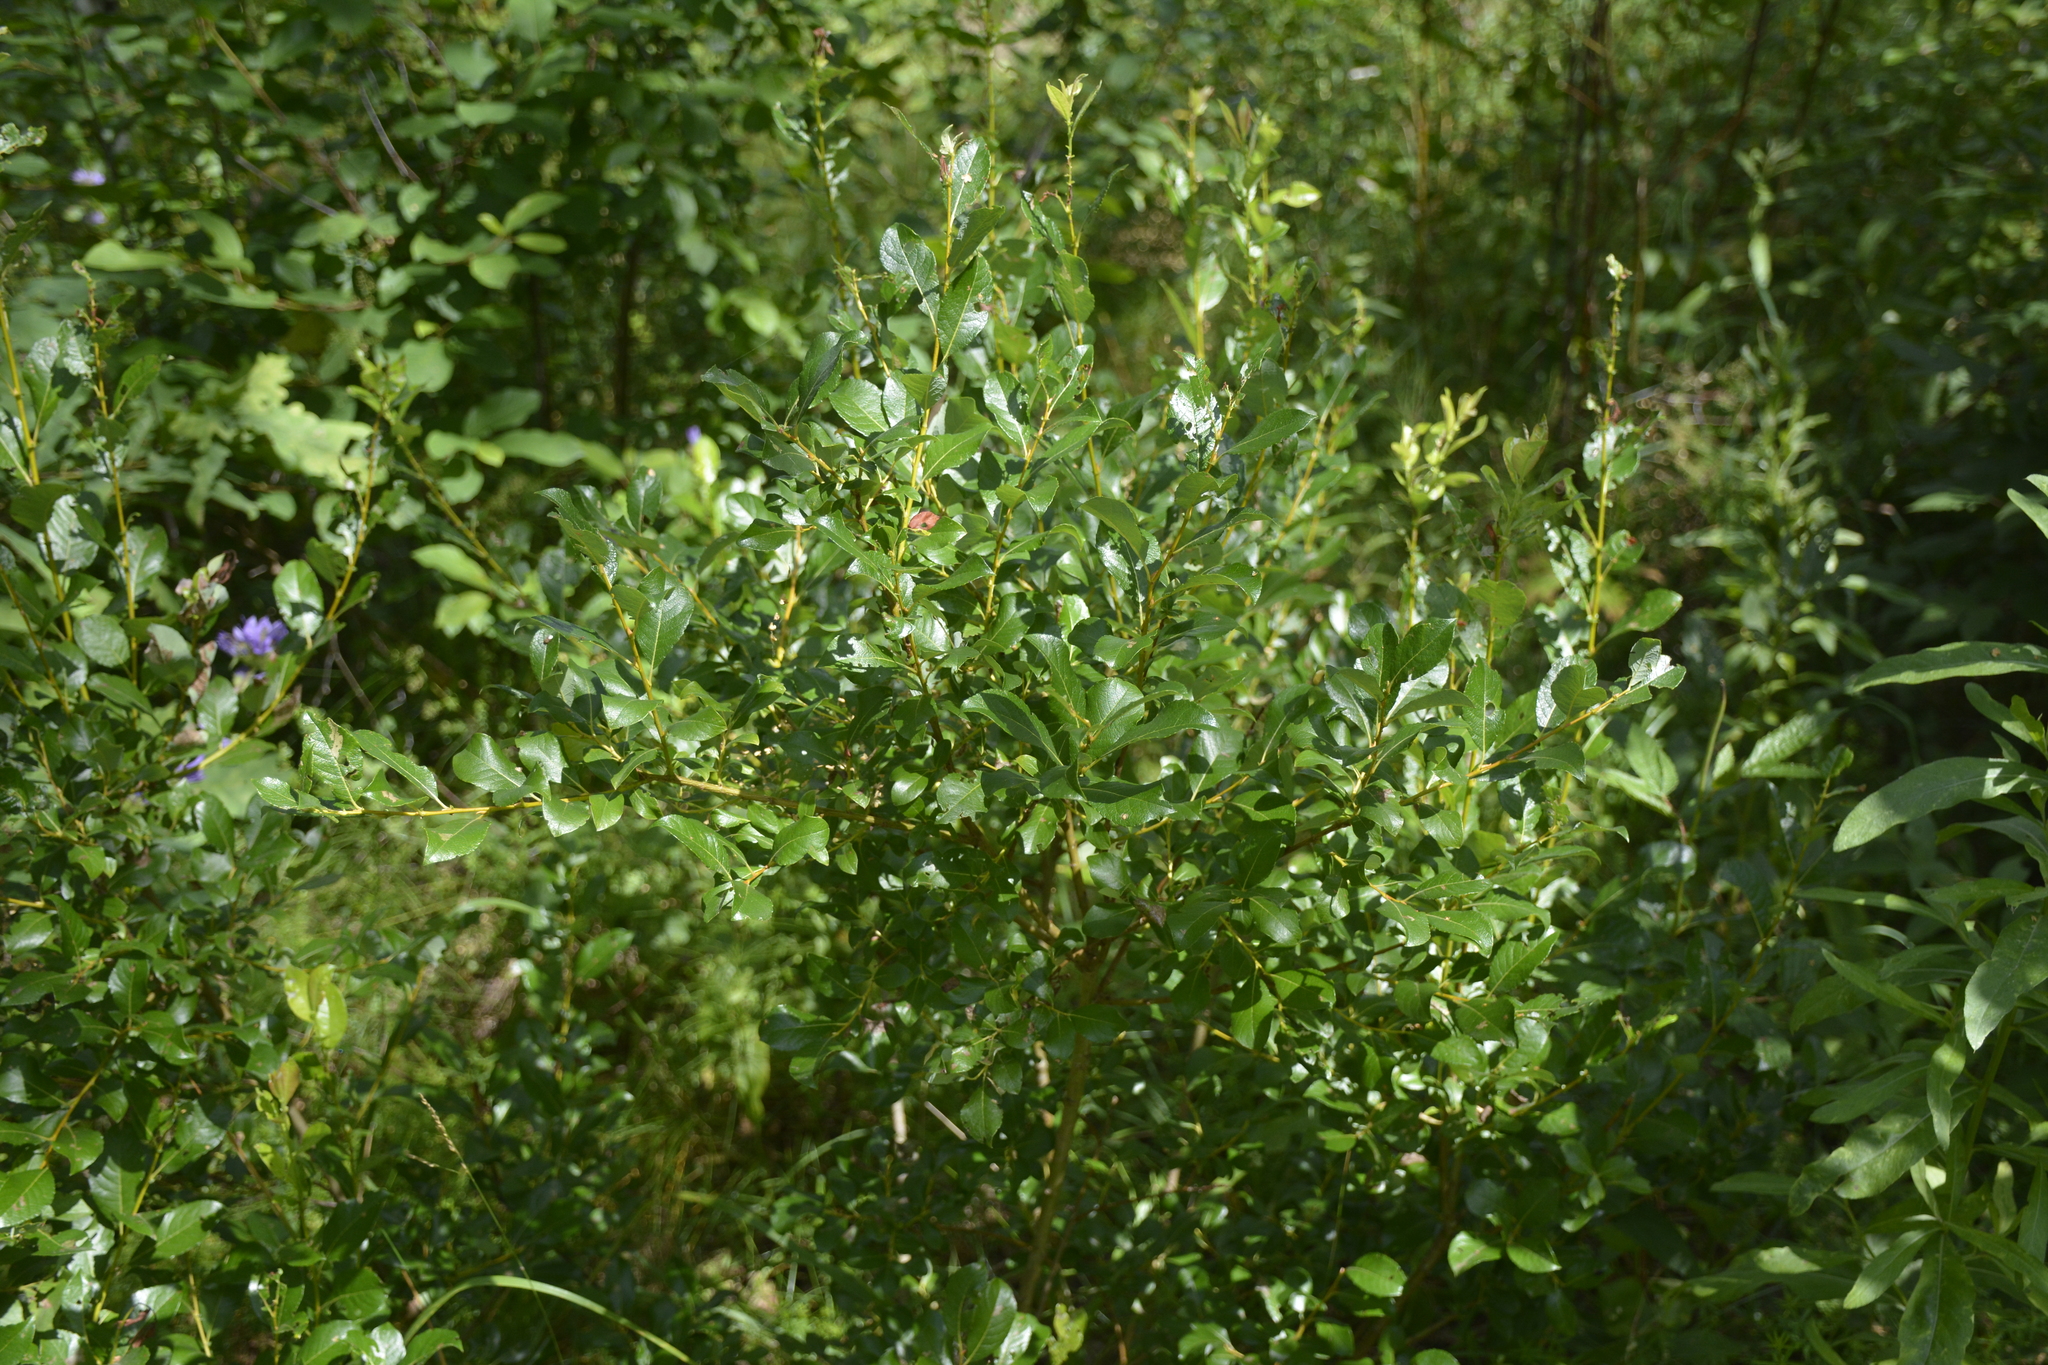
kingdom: Plantae
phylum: Tracheophyta
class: Magnoliopsida
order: Malpighiales
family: Salicaceae
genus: Salix
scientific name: Salix starkeana
